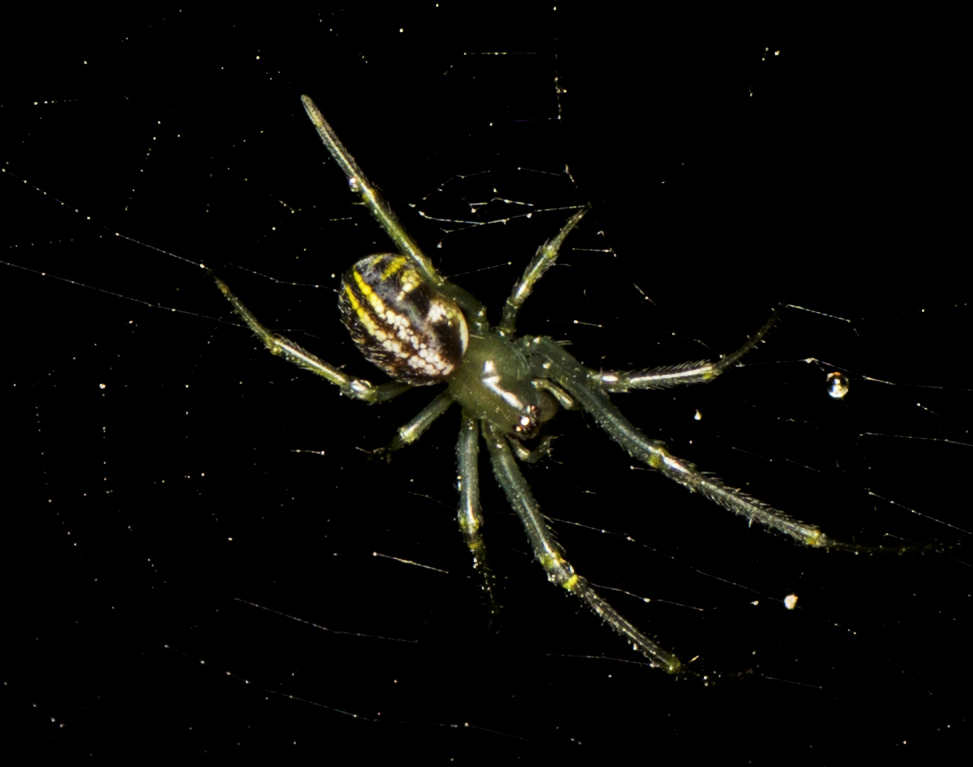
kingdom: Animalia
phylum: Arthropoda
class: Arachnida
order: Araneae
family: Araneidae
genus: Phonognatha
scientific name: Phonognatha graeffei
